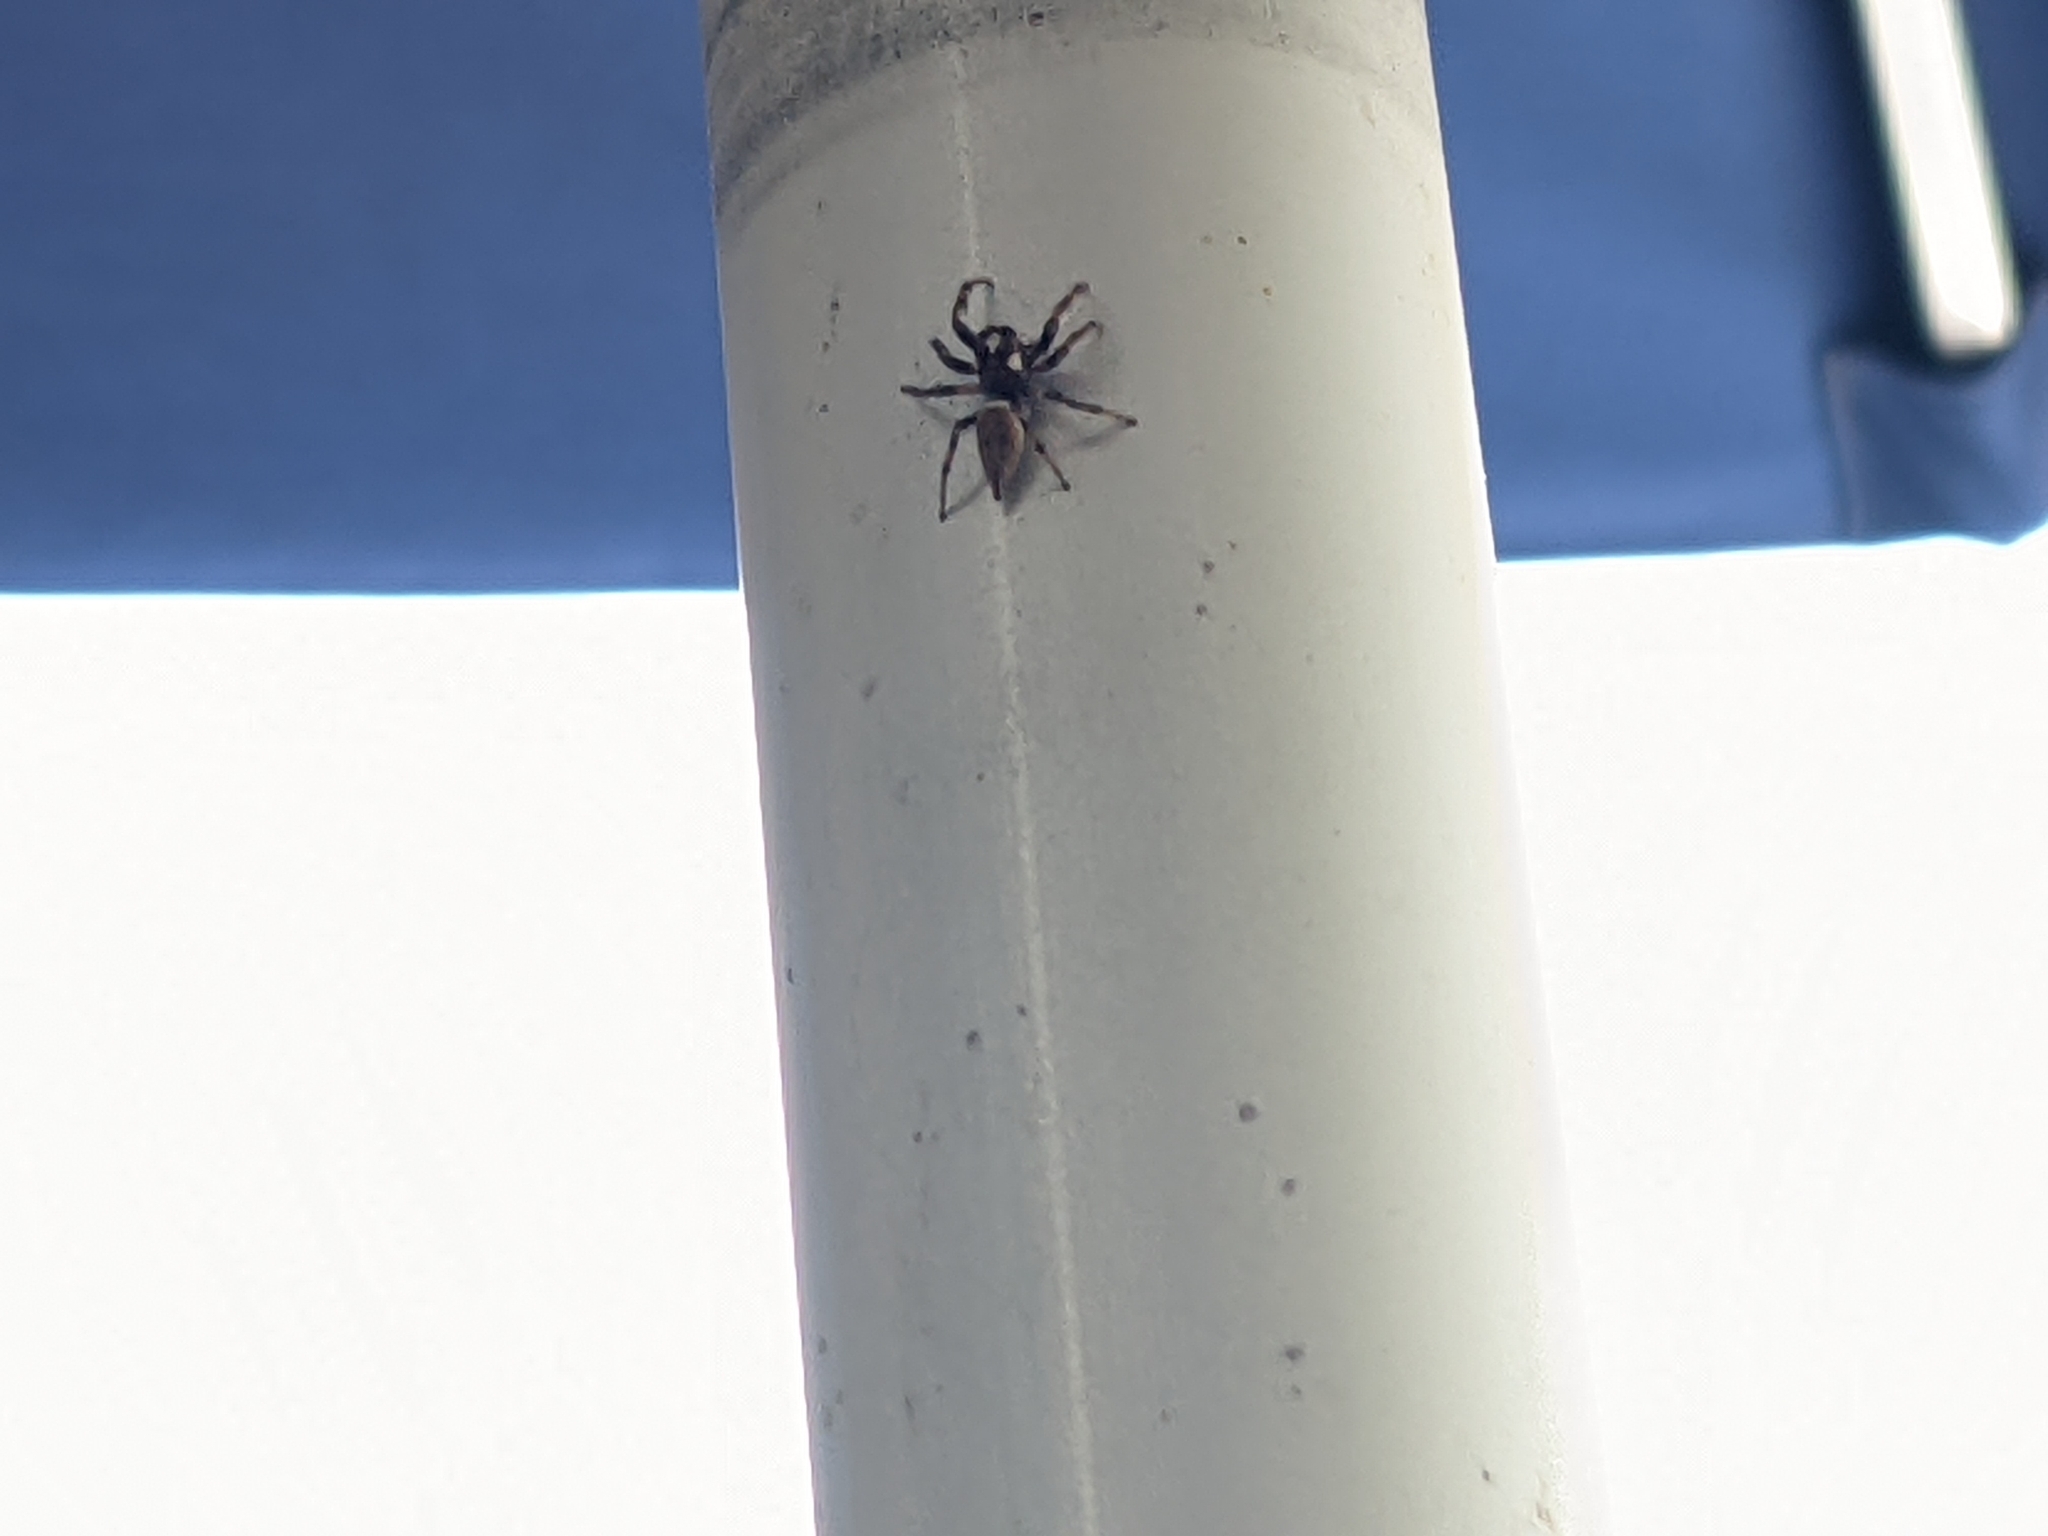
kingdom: Animalia
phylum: Arthropoda
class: Arachnida
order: Araneae
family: Salticidae
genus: Colonus
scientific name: Colonus hesperus
